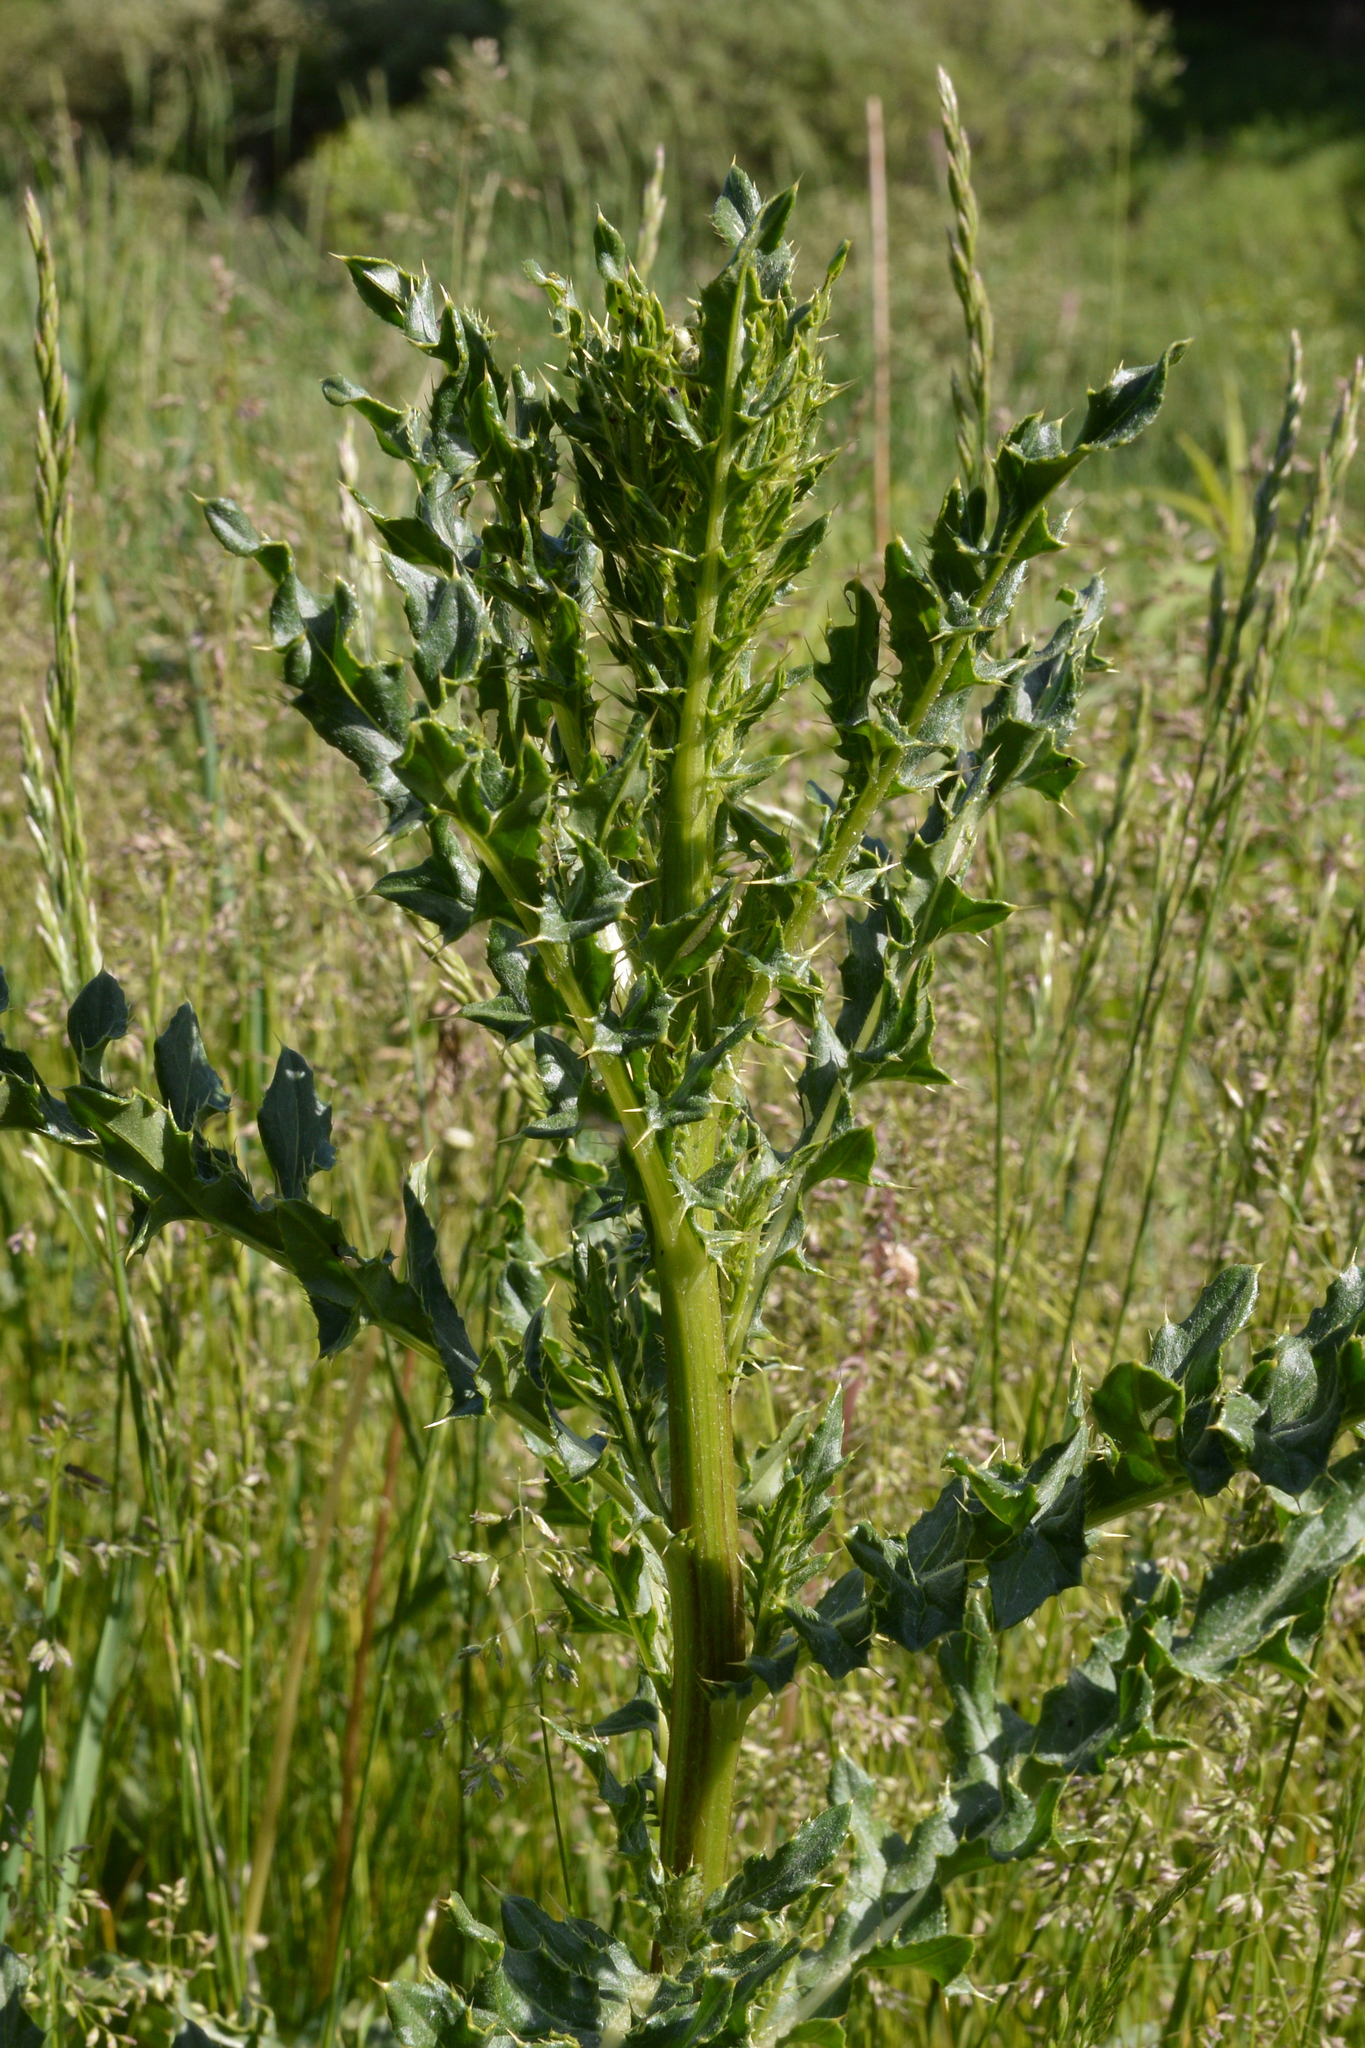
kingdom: Plantae
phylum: Tracheophyta
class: Magnoliopsida
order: Asterales
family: Asteraceae
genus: Cirsium
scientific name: Cirsium arvense
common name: Creeping thistle
